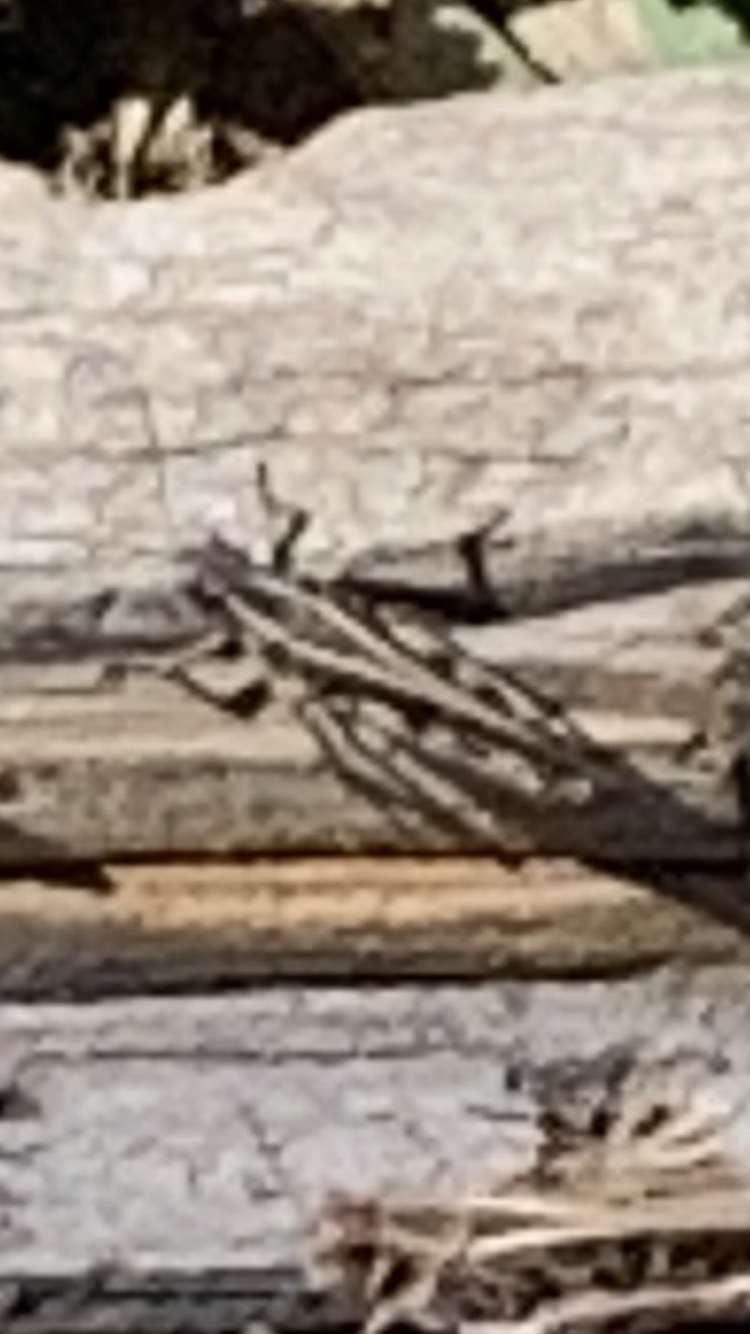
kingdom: Animalia
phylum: Arthropoda
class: Insecta
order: Orthoptera
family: Acrididae
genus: Camnula
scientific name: Camnula pellucida
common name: Clear-winged grasshopper
